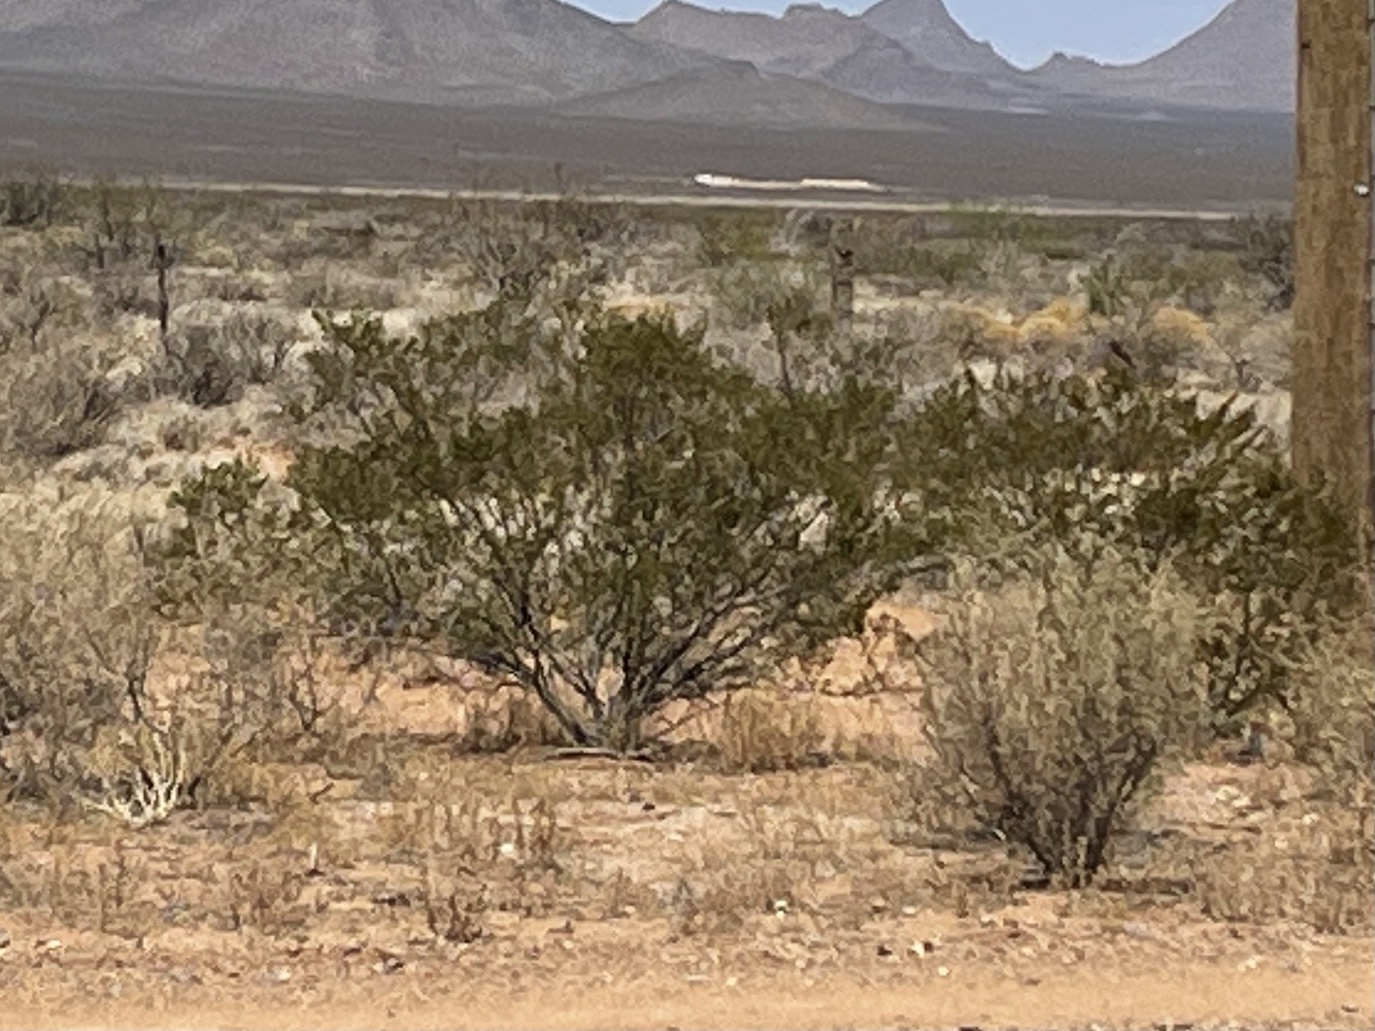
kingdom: Plantae
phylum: Tracheophyta
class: Magnoliopsida
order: Zygophyllales
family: Zygophyllaceae
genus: Larrea
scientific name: Larrea tridentata
